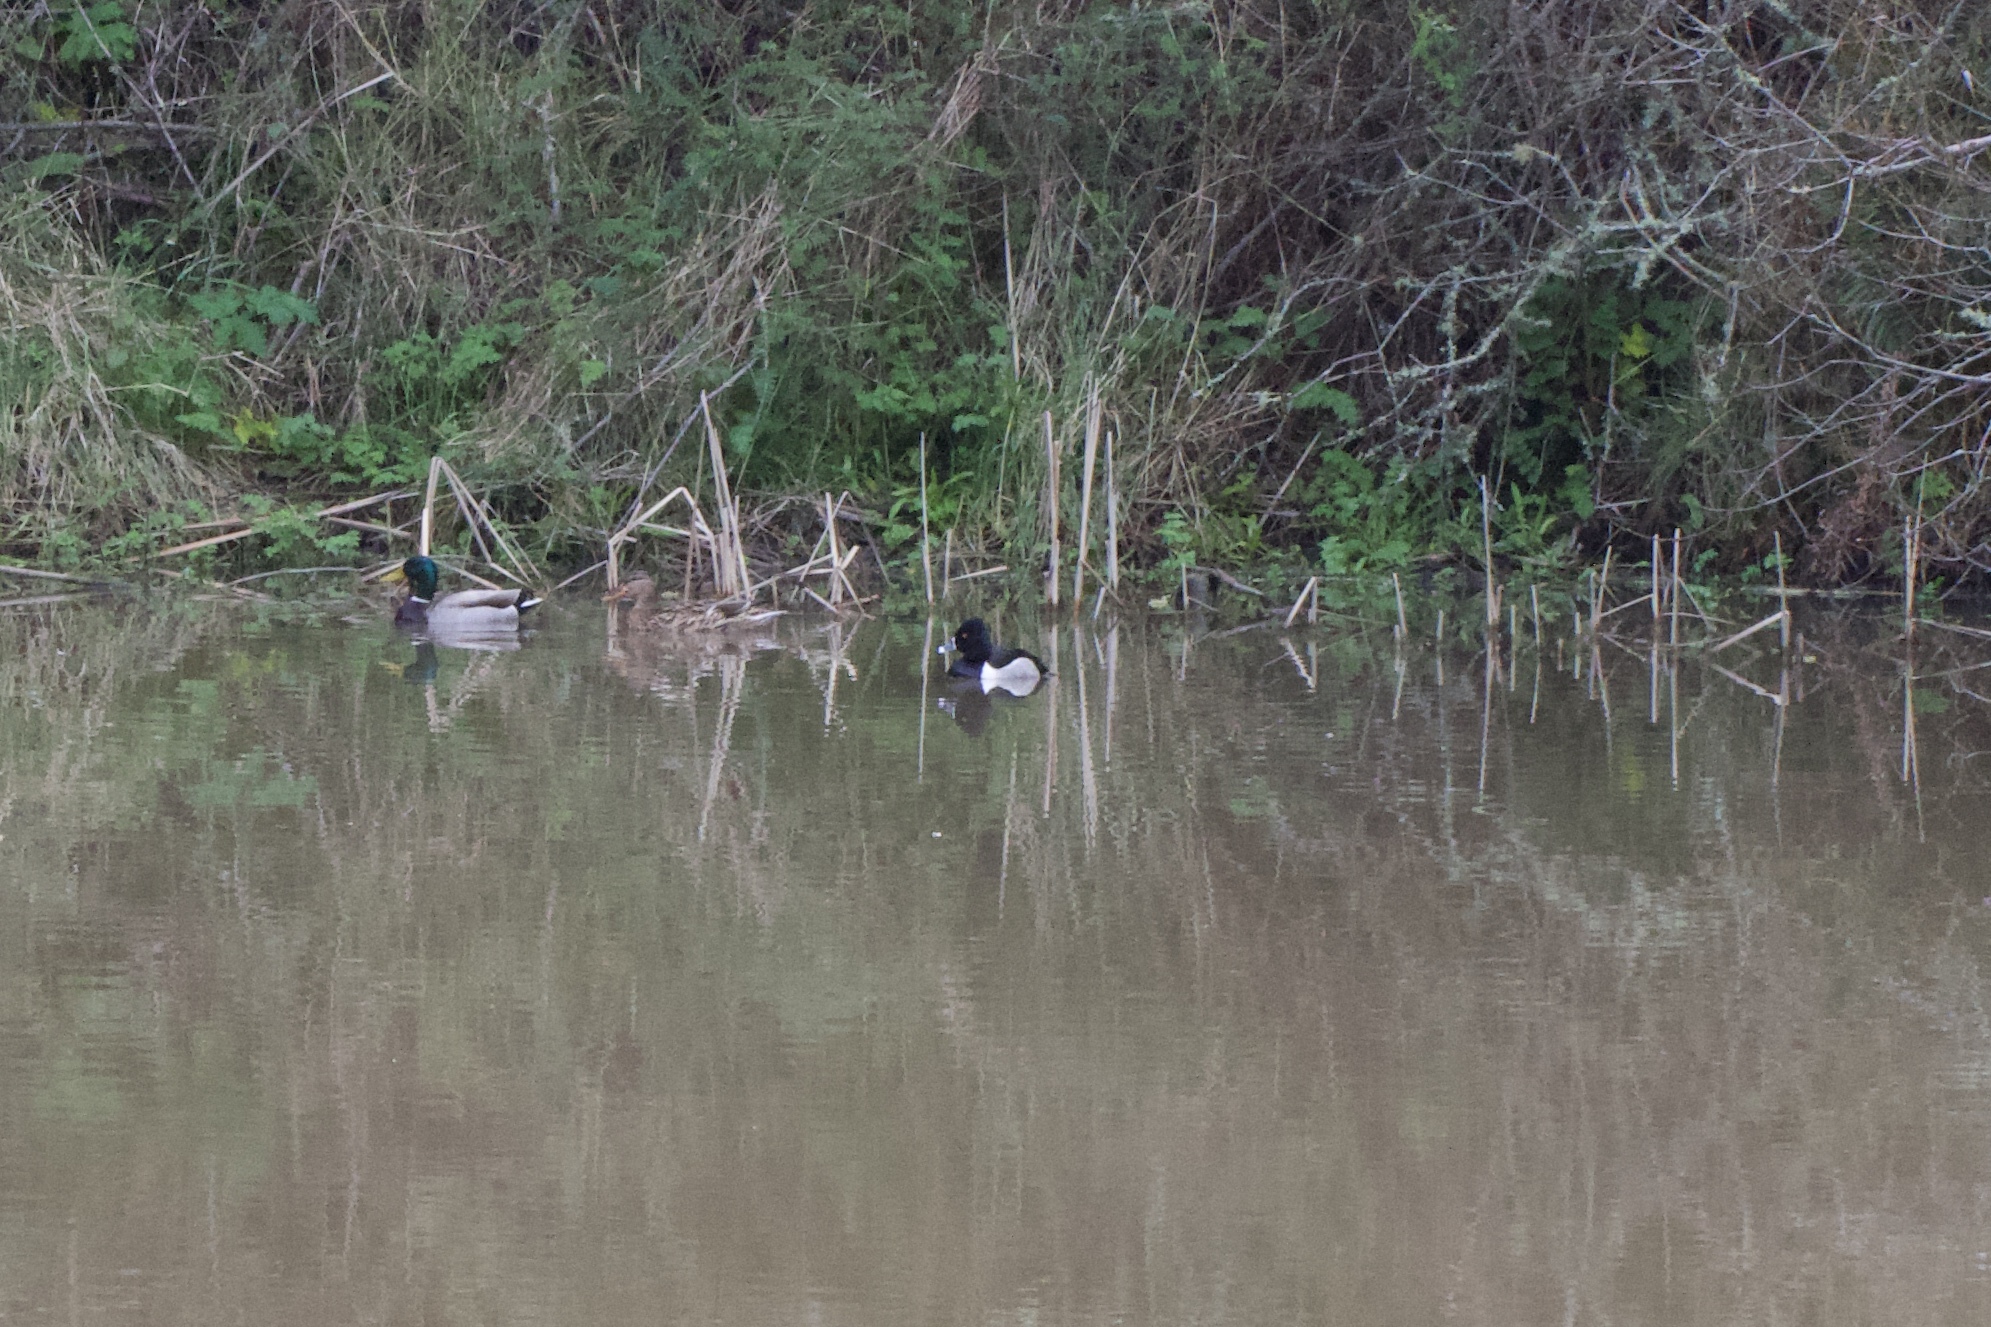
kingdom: Animalia
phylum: Chordata
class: Aves
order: Anseriformes
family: Anatidae
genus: Aythya
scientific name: Aythya collaris
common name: Ring-necked duck
